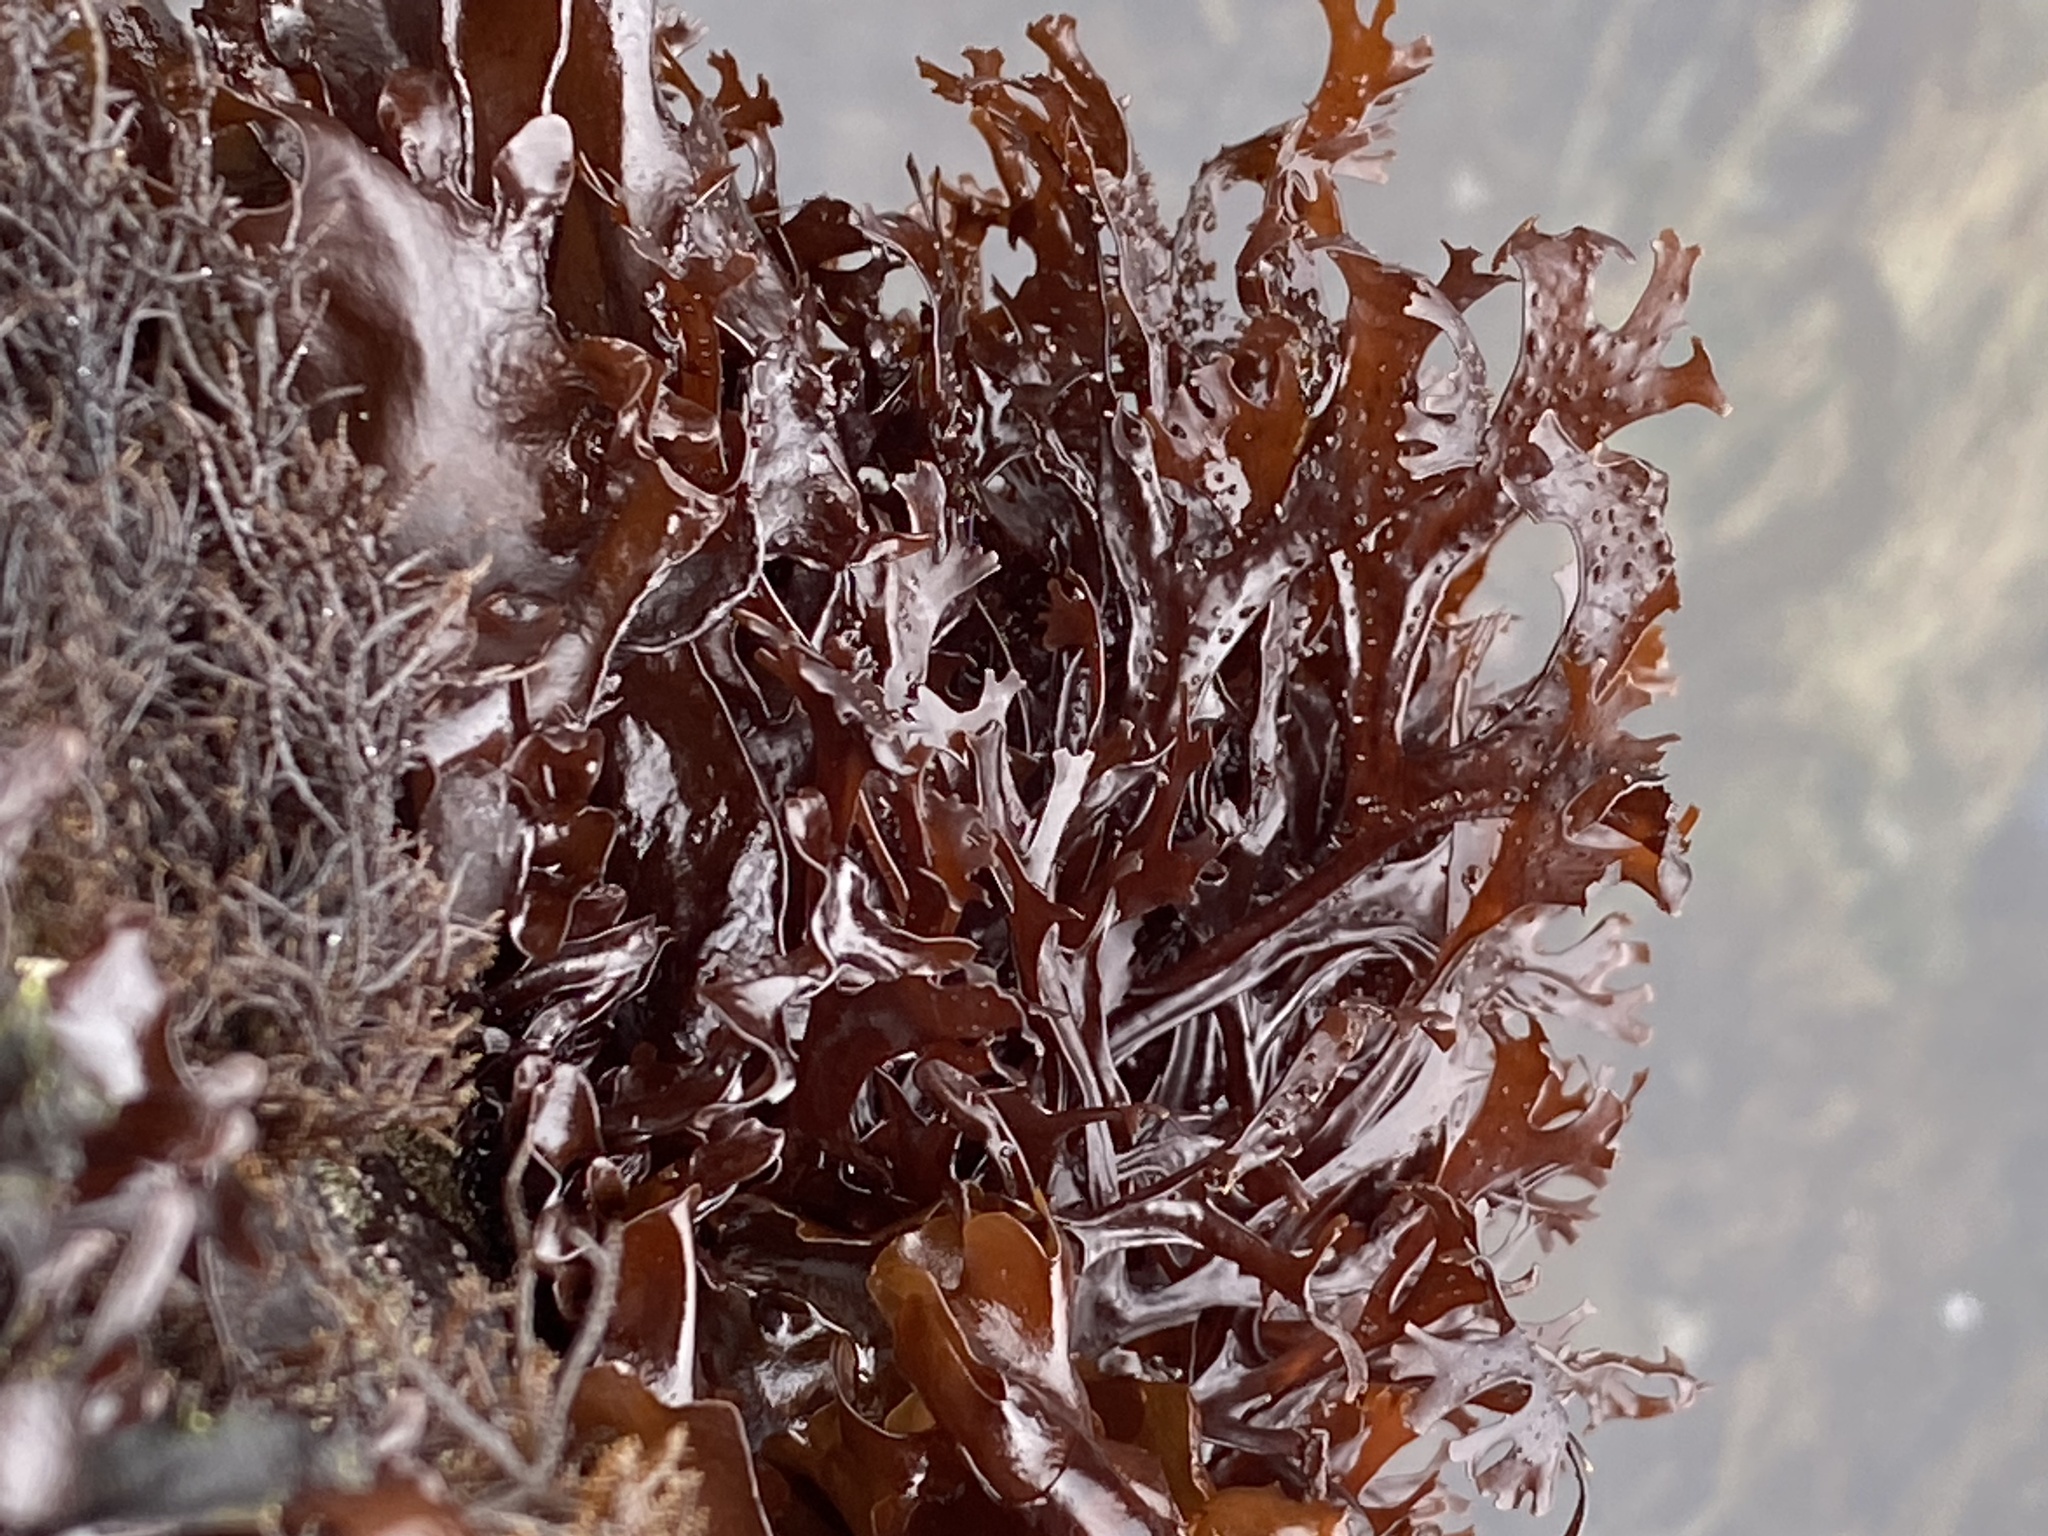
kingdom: Plantae
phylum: Rhodophyta
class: Florideophyceae
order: Gigartinales
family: Phyllophoraceae
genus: Mastocarpus
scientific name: Mastocarpus jardinii
